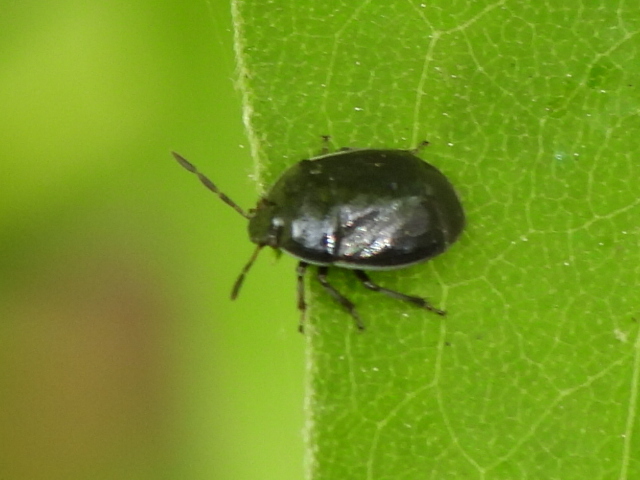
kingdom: Animalia
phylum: Arthropoda
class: Insecta
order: Hemiptera
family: Cydnidae
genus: Sehirus
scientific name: Sehirus cinctus
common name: White-margined burrower bug
